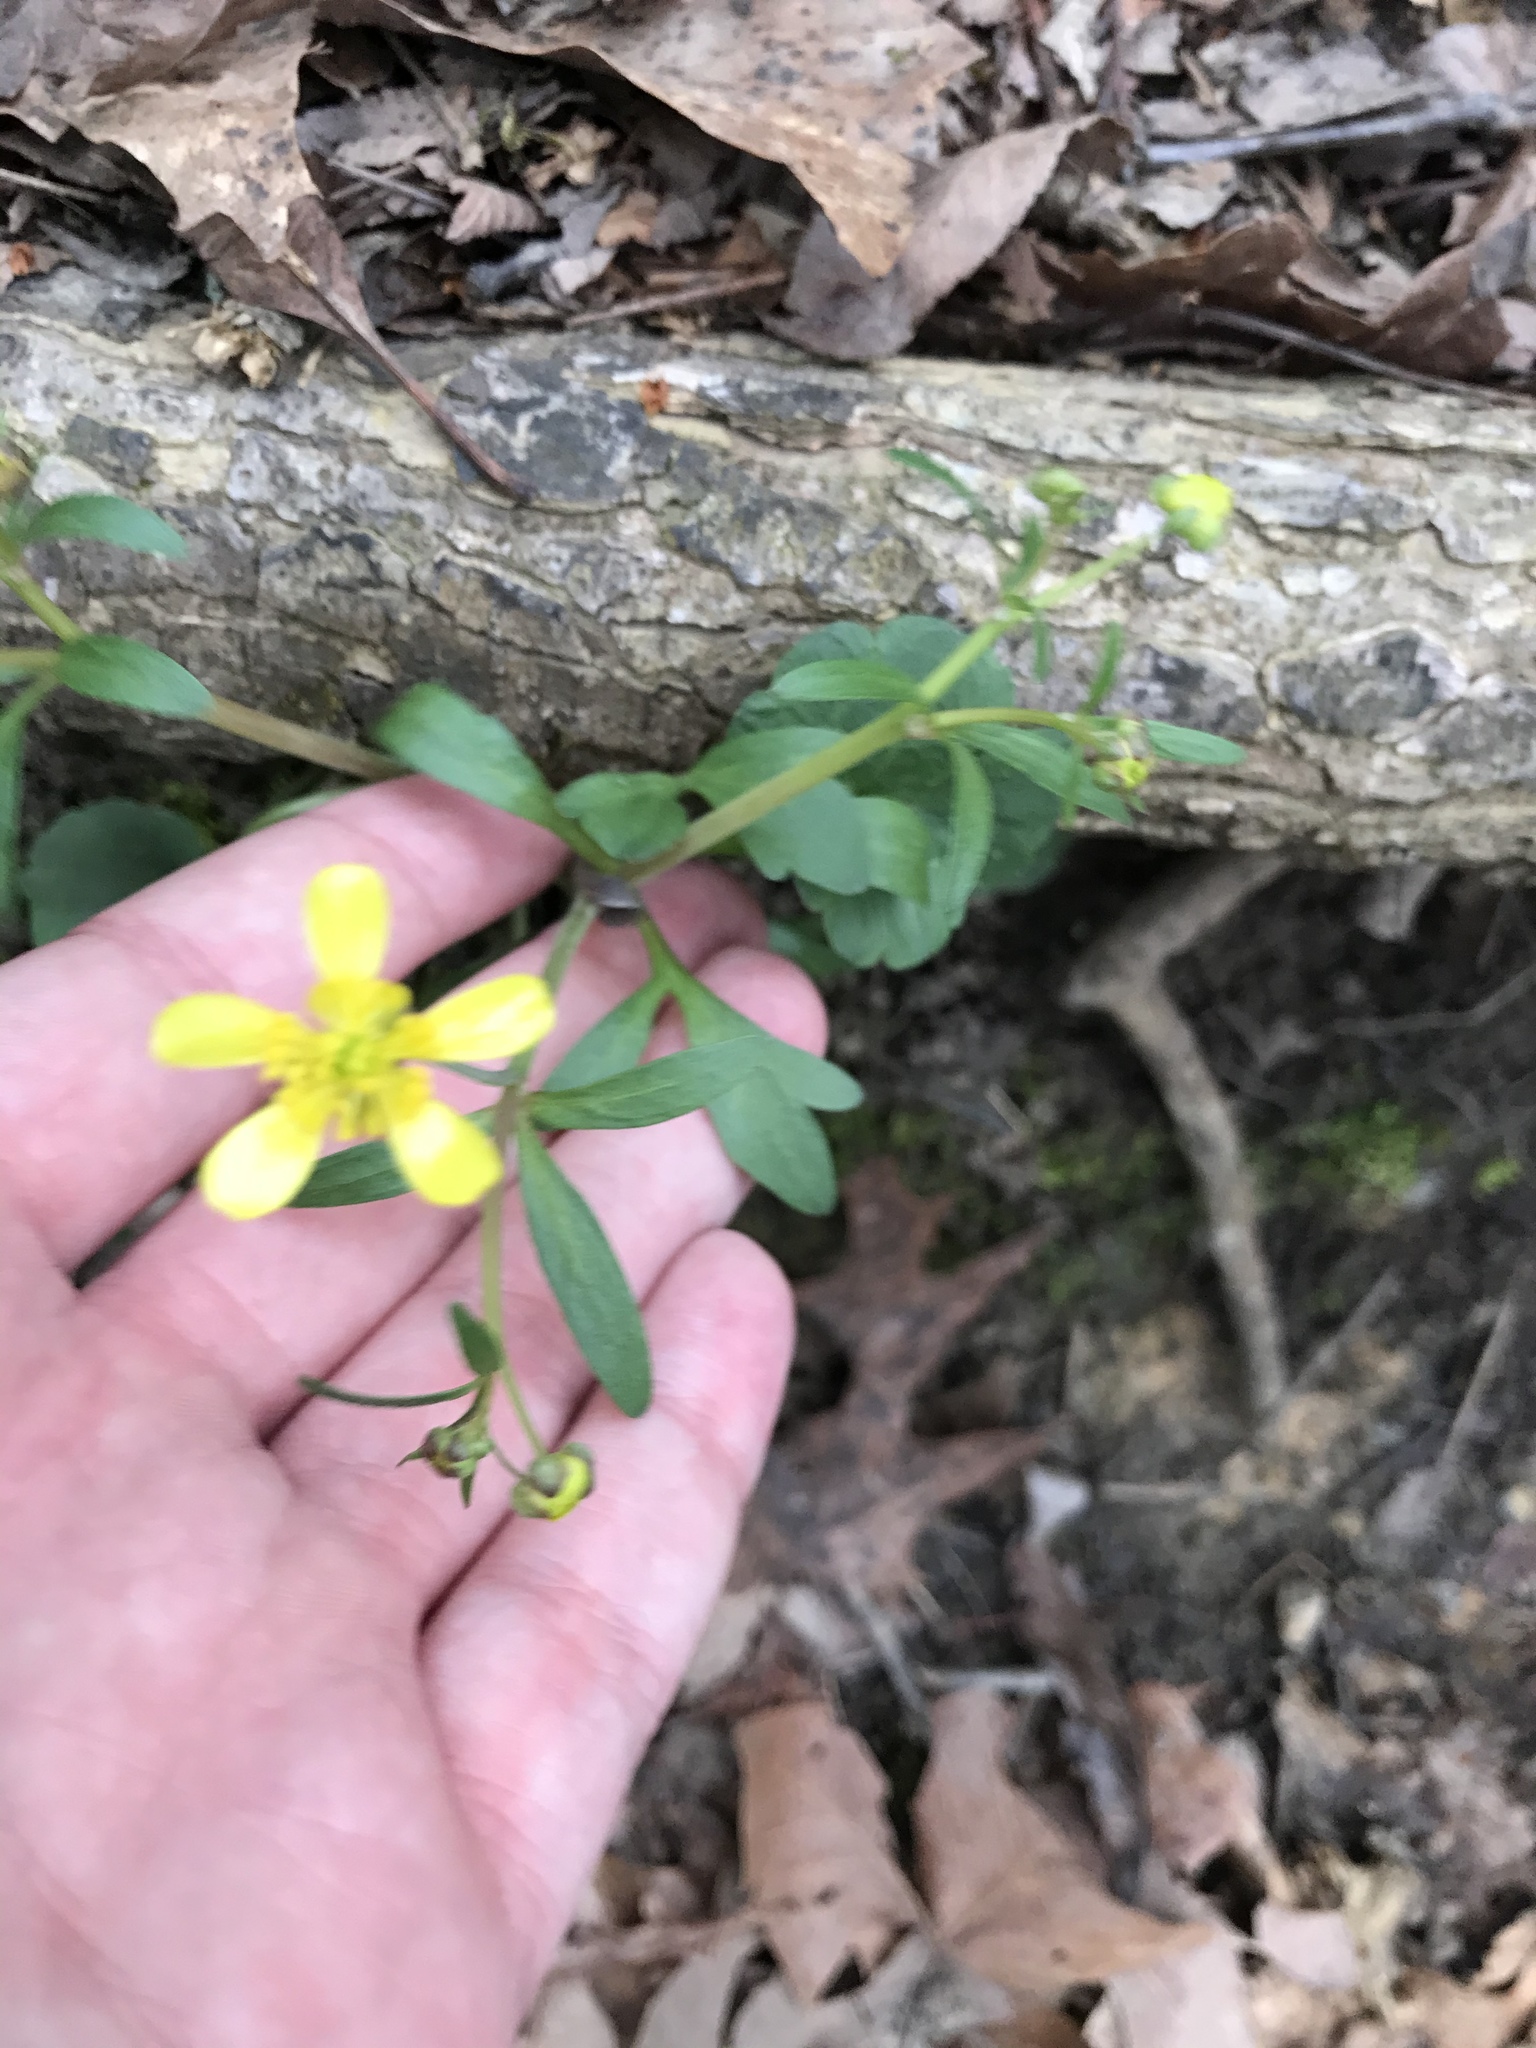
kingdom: Plantae
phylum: Tracheophyta
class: Magnoliopsida
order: Ranunculales
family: Ranunculaceae
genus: Ranunculus
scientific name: Ranunculus harveyi
